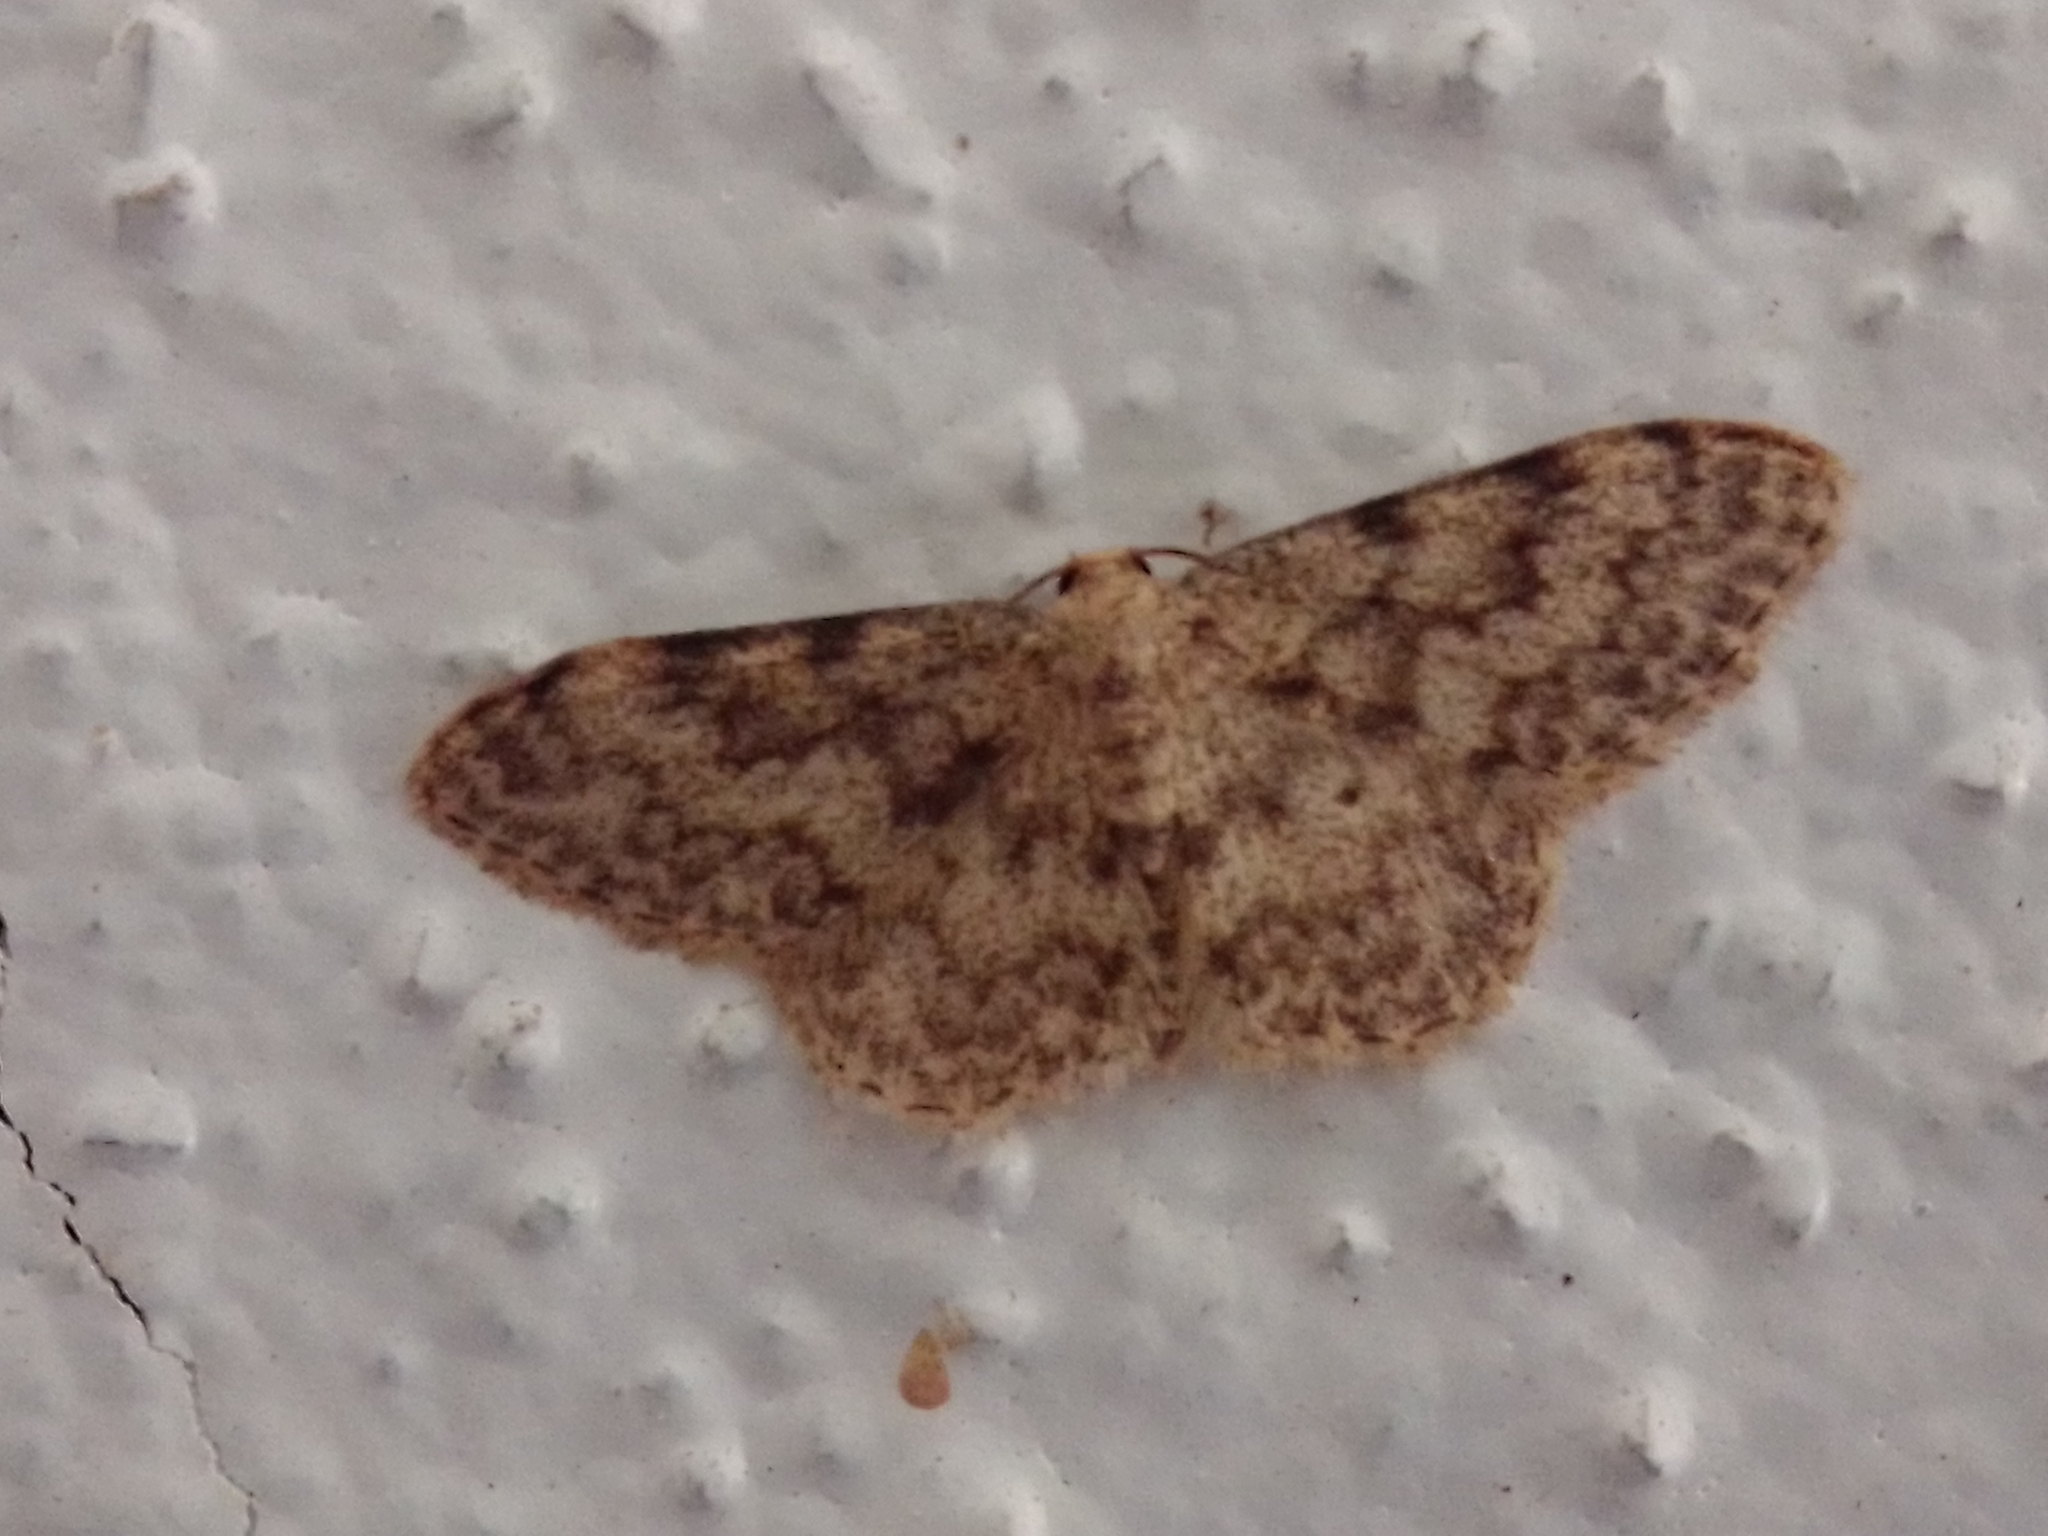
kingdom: Animalia
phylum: Arthropoda
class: Insecta
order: Lepidoptera
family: Geometridae
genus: Idaea
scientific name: Idaea cervantaria
